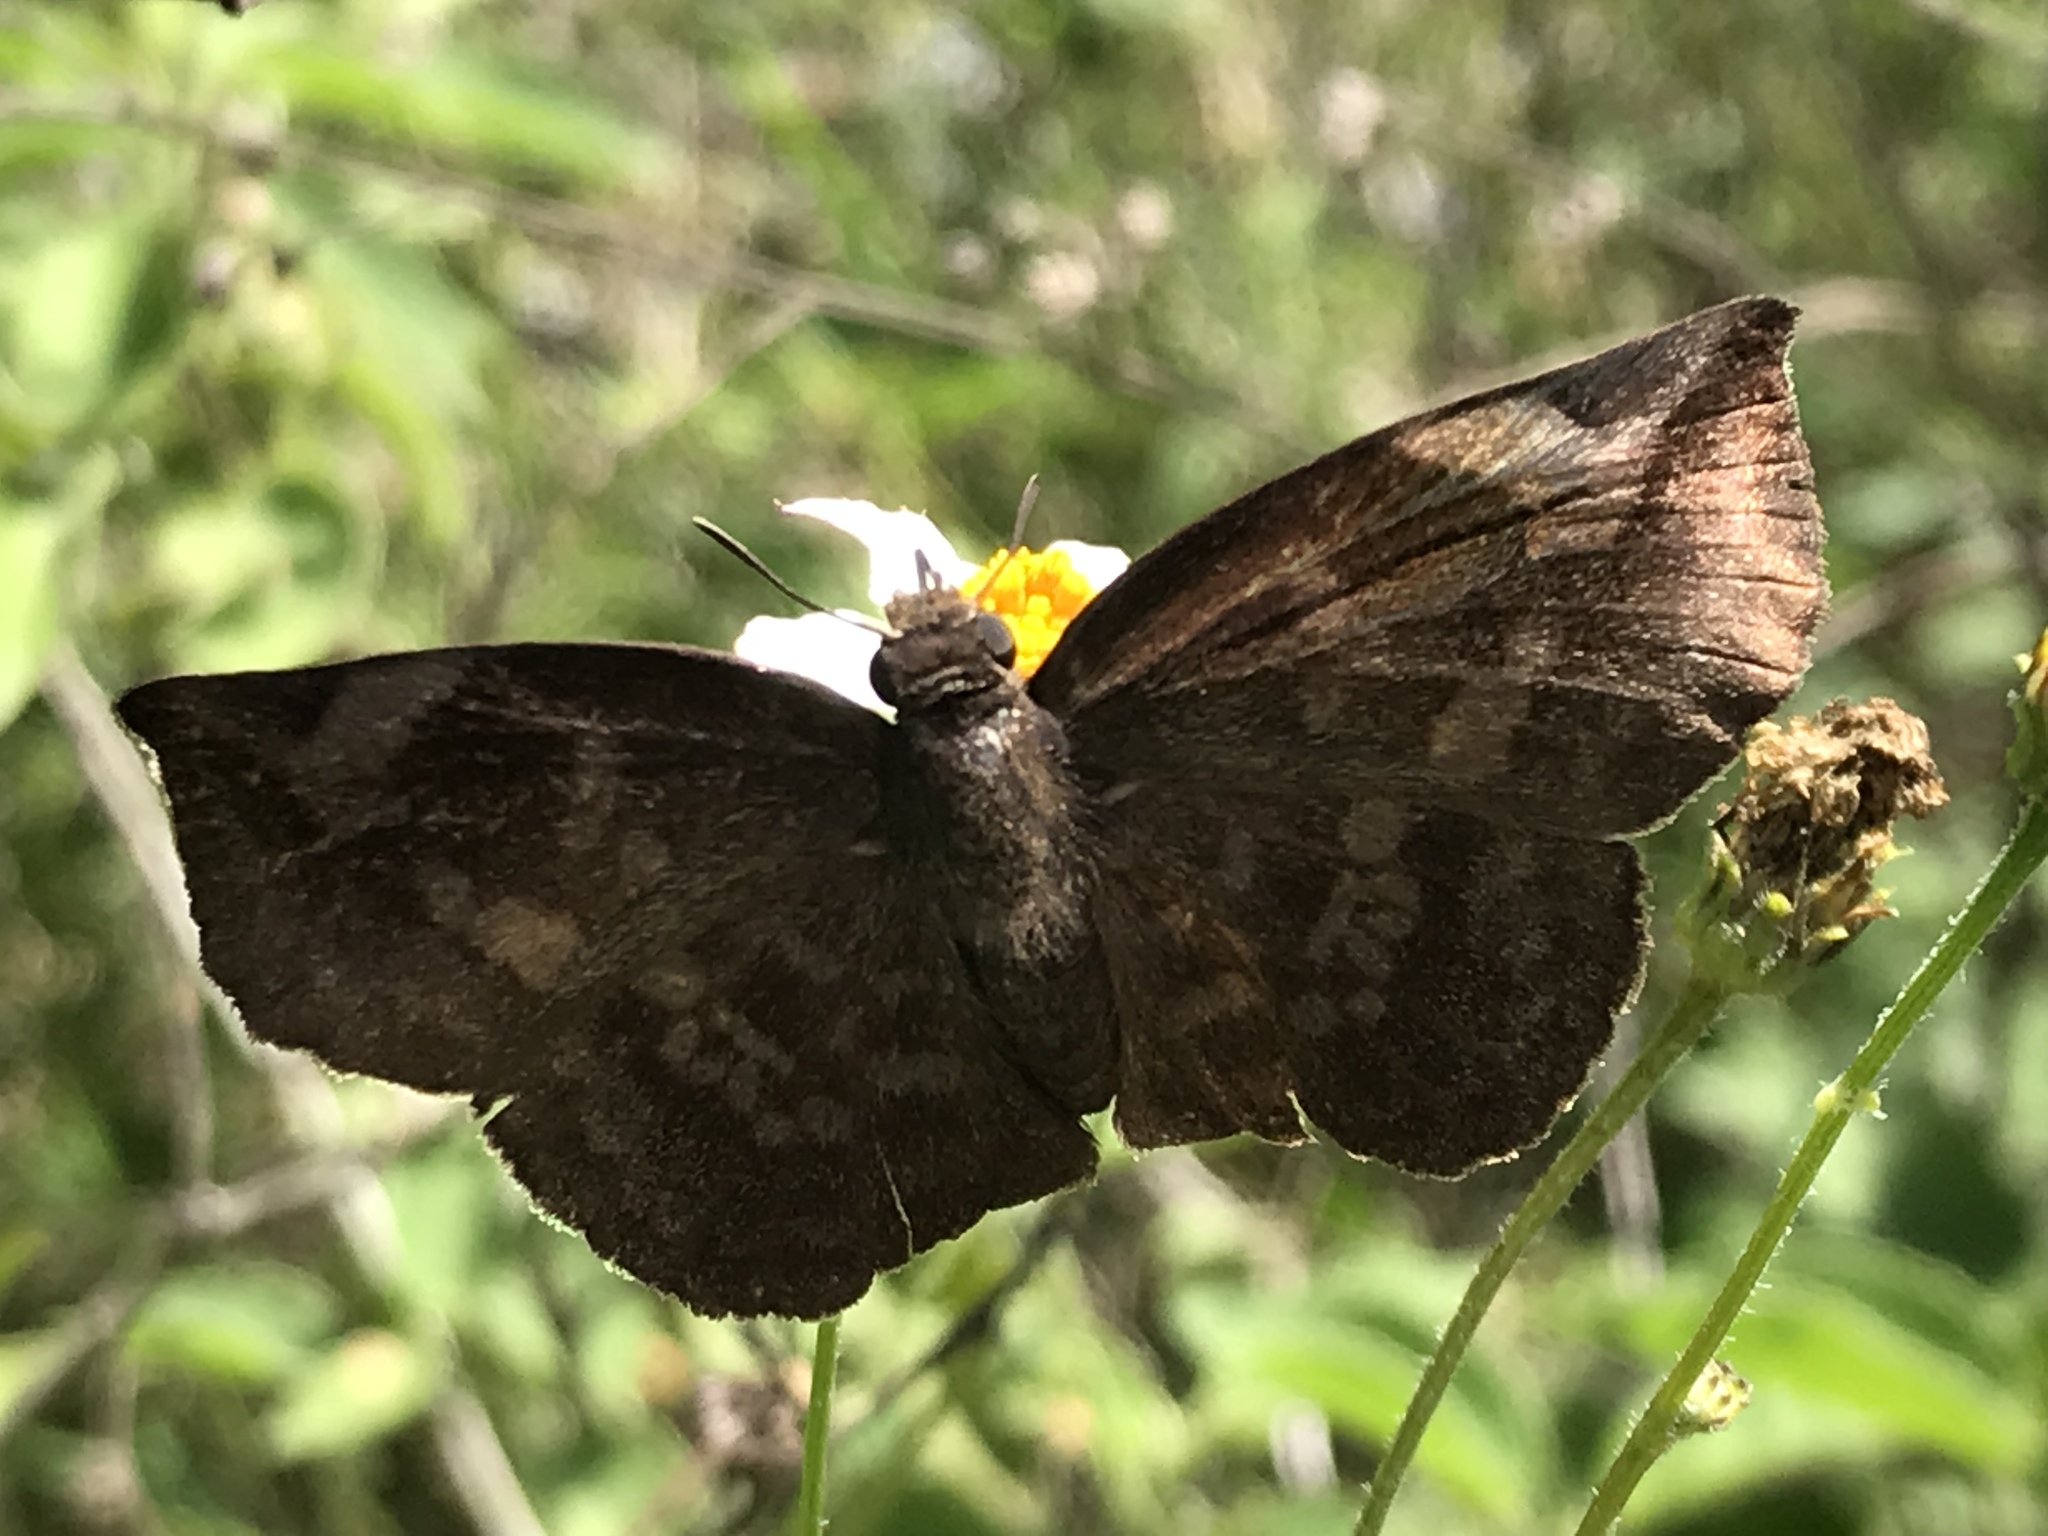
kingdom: Animalia
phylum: Arthropoda
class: Insecta
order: Lepidoptera
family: Hesperiidae
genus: Achlyodes
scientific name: Achlyodes thraso
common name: Sickle-winged skipper
